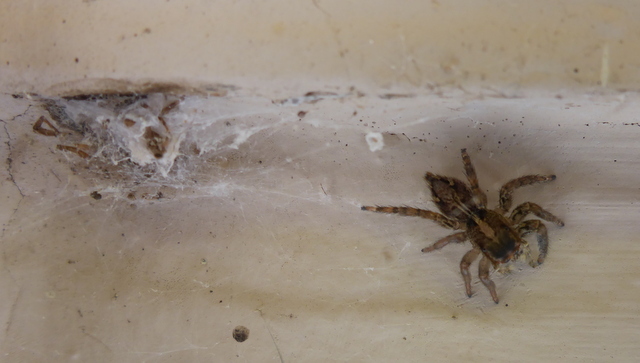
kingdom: Animalia
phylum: Arthropoda
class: Arachnida
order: Araneae
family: Salticidae
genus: Plexippus
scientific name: Plexippus paykulli
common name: Pantropical jumper
